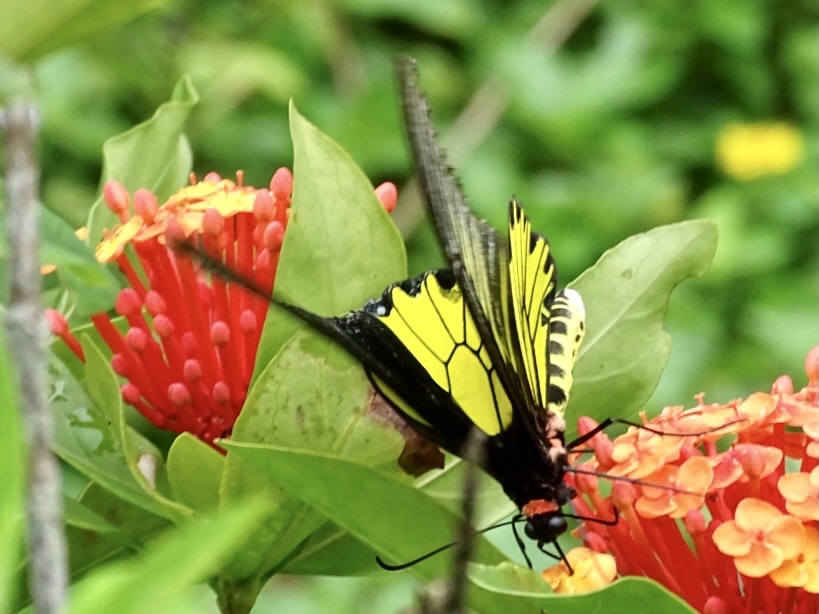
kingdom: Animalia
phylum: Arthropoda
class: Insecta
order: Lepidoptera
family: Papilionidae
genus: Troides
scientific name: Troides aeacus
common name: Golden birdwing
